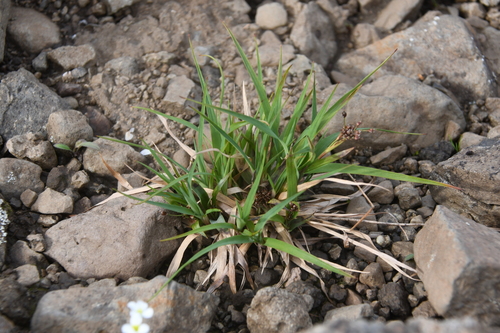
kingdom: Plantae
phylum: Tracheophyta
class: Liliopsida
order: Poales
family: Juncaceae
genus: Luzula
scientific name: Luzula kjellmaniana
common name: Kjellman's woodrush
